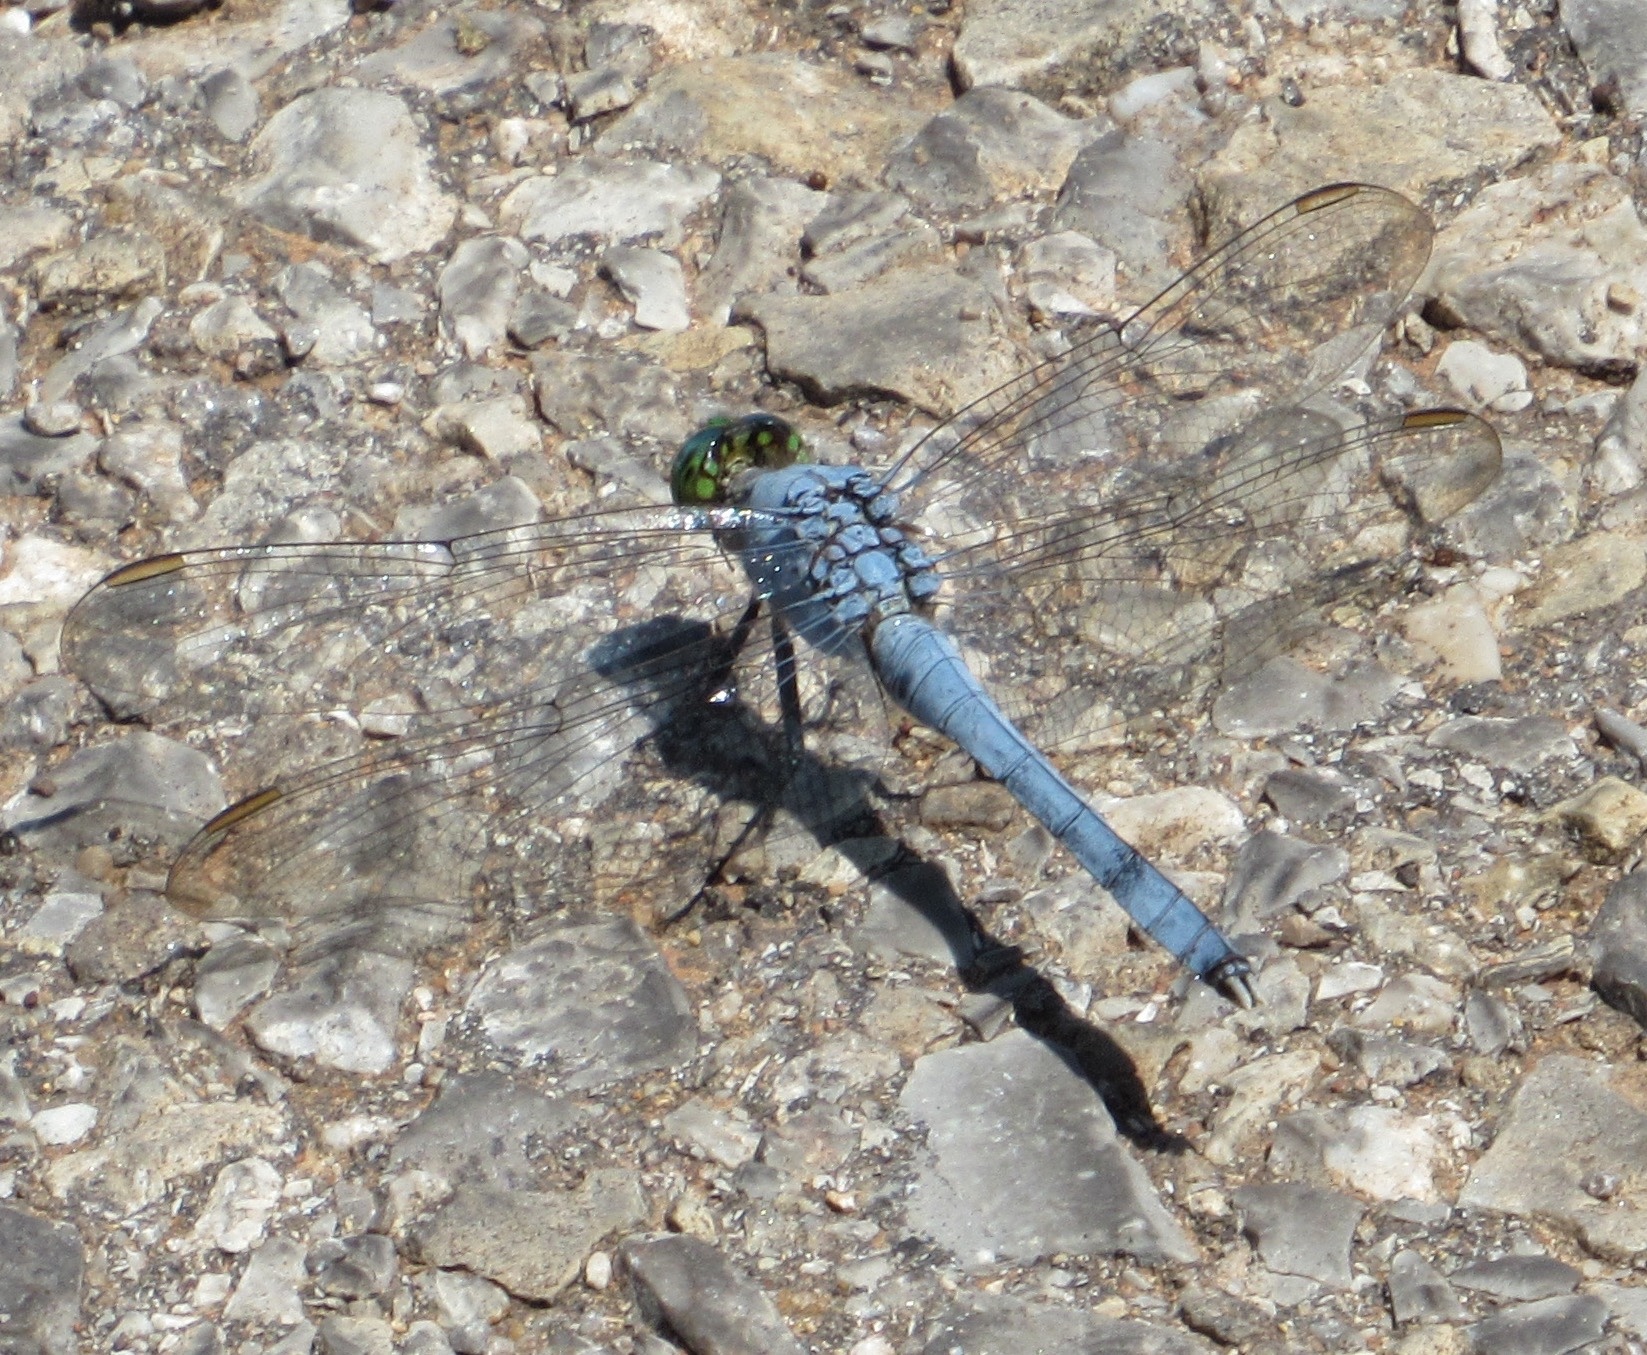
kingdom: Animalia
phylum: Arthropoda
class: Insecta
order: Odonata
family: Libellulidae
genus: Erythemis
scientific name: Erythemis simplicicollis
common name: Eastern pondhawk
